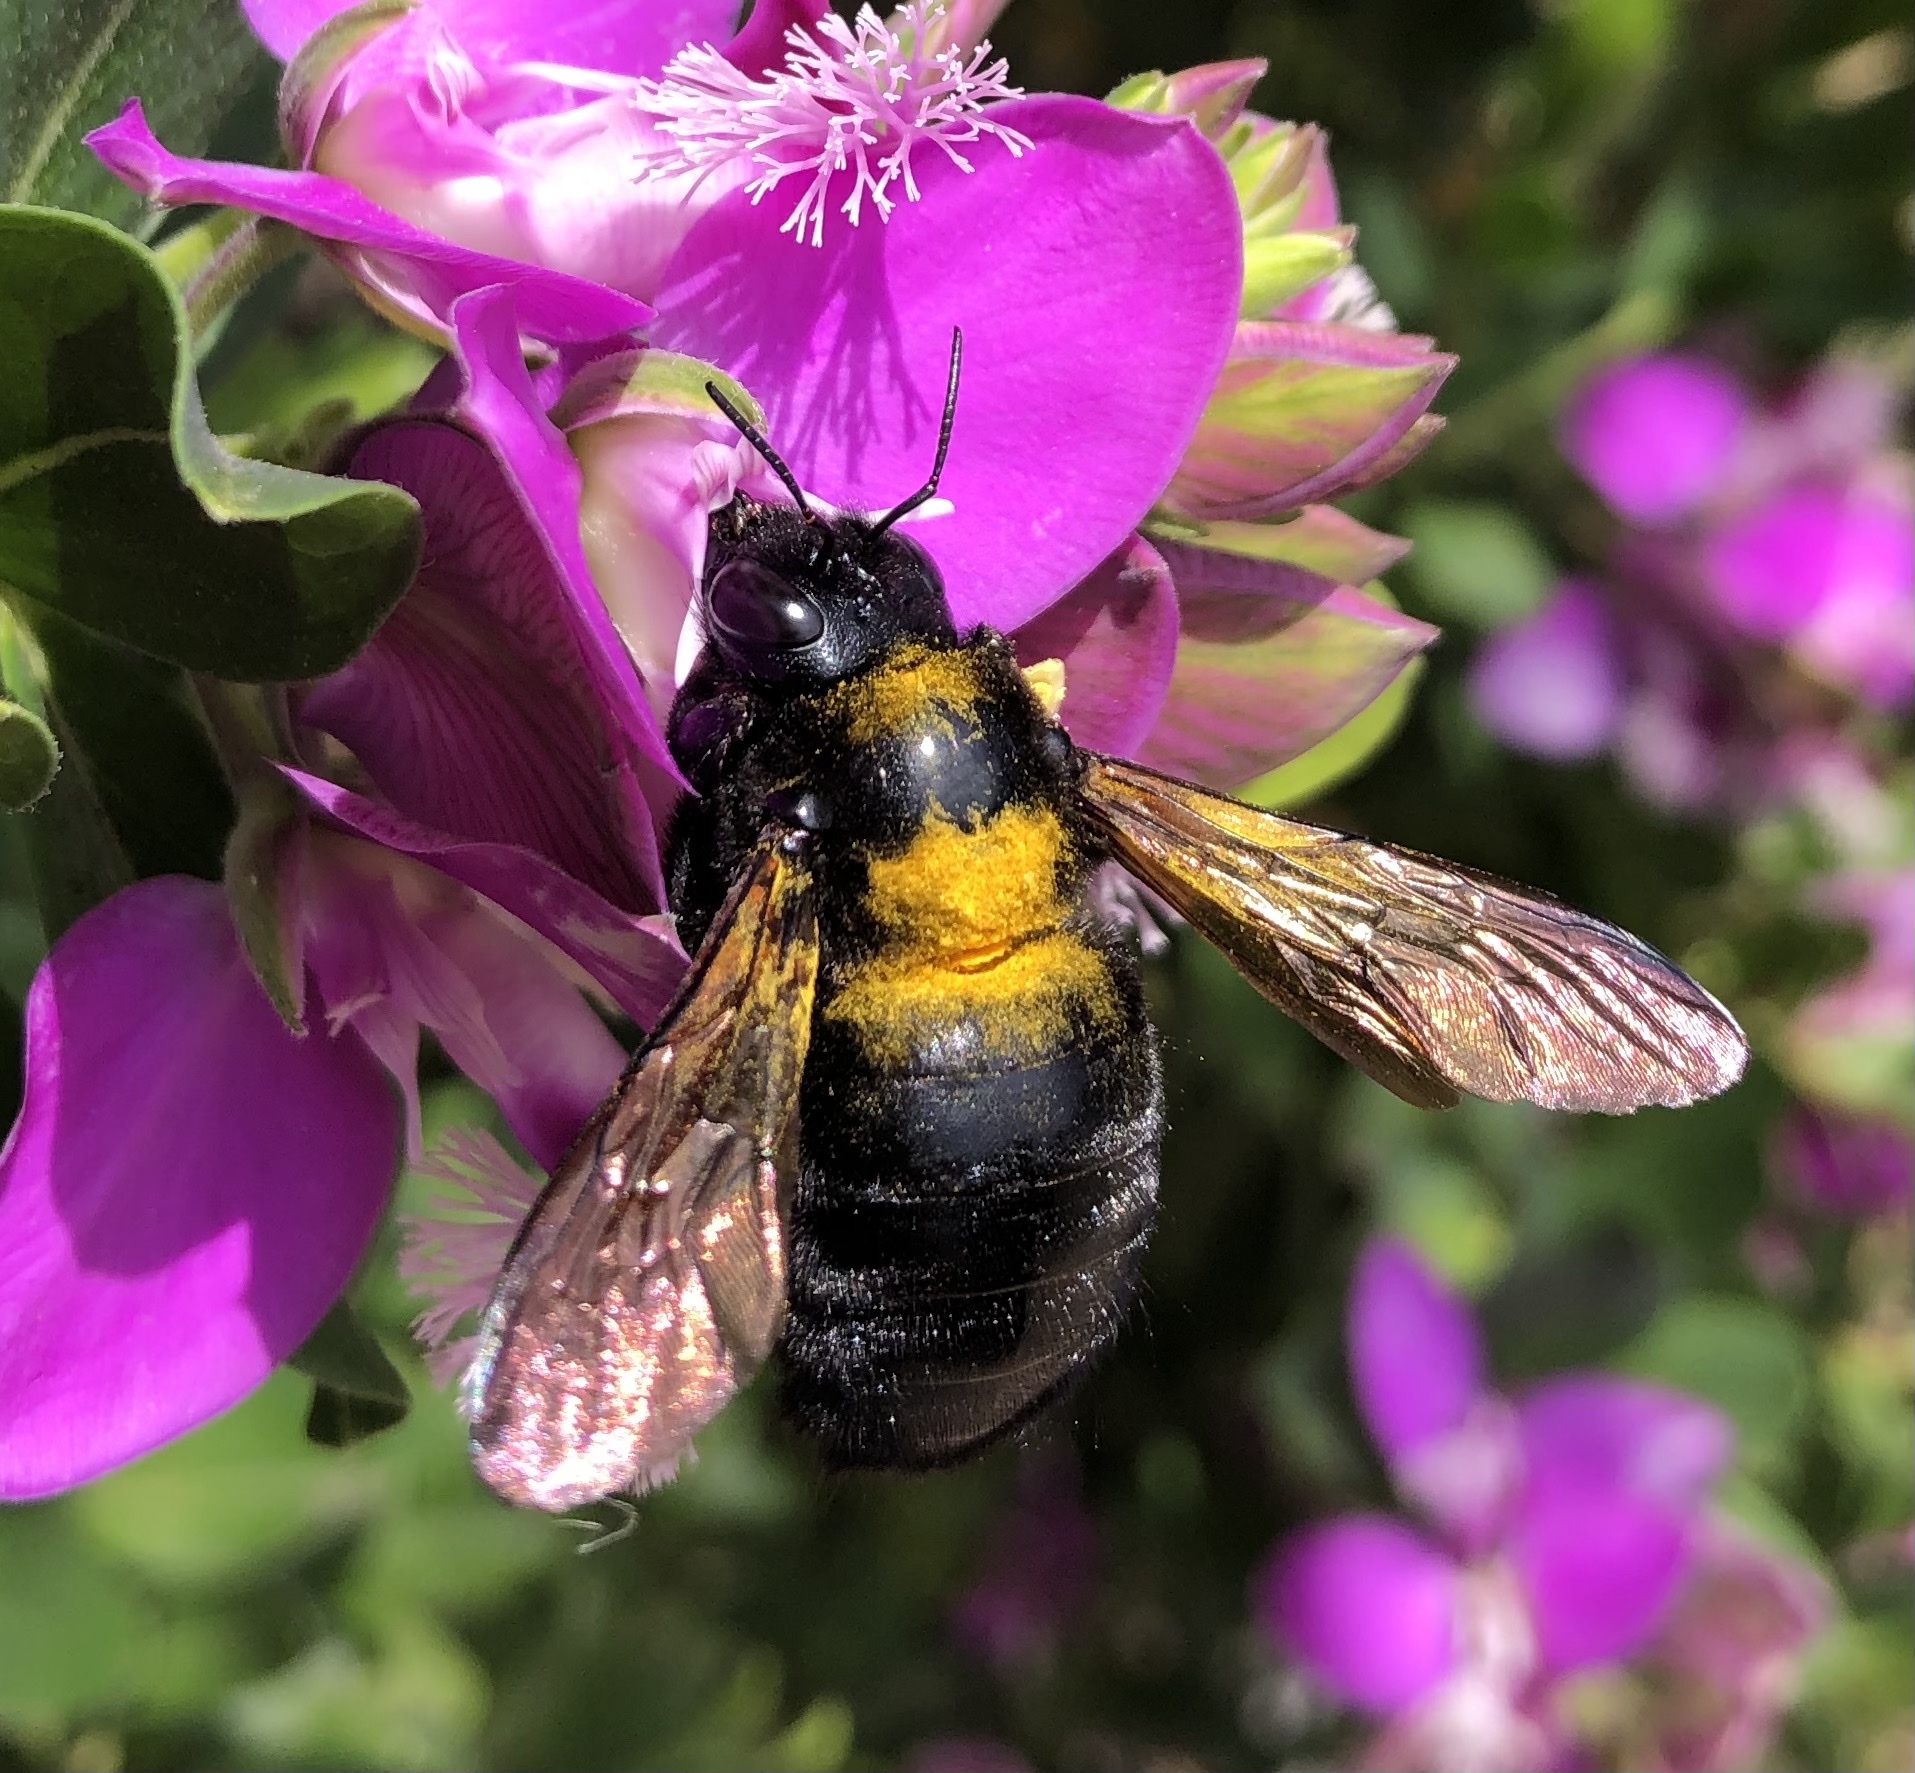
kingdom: Animalia
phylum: Arthropoda
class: Insecta
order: Hymenoptera
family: Apidae
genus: Xylocopa
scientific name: Xylocopa sonorina
